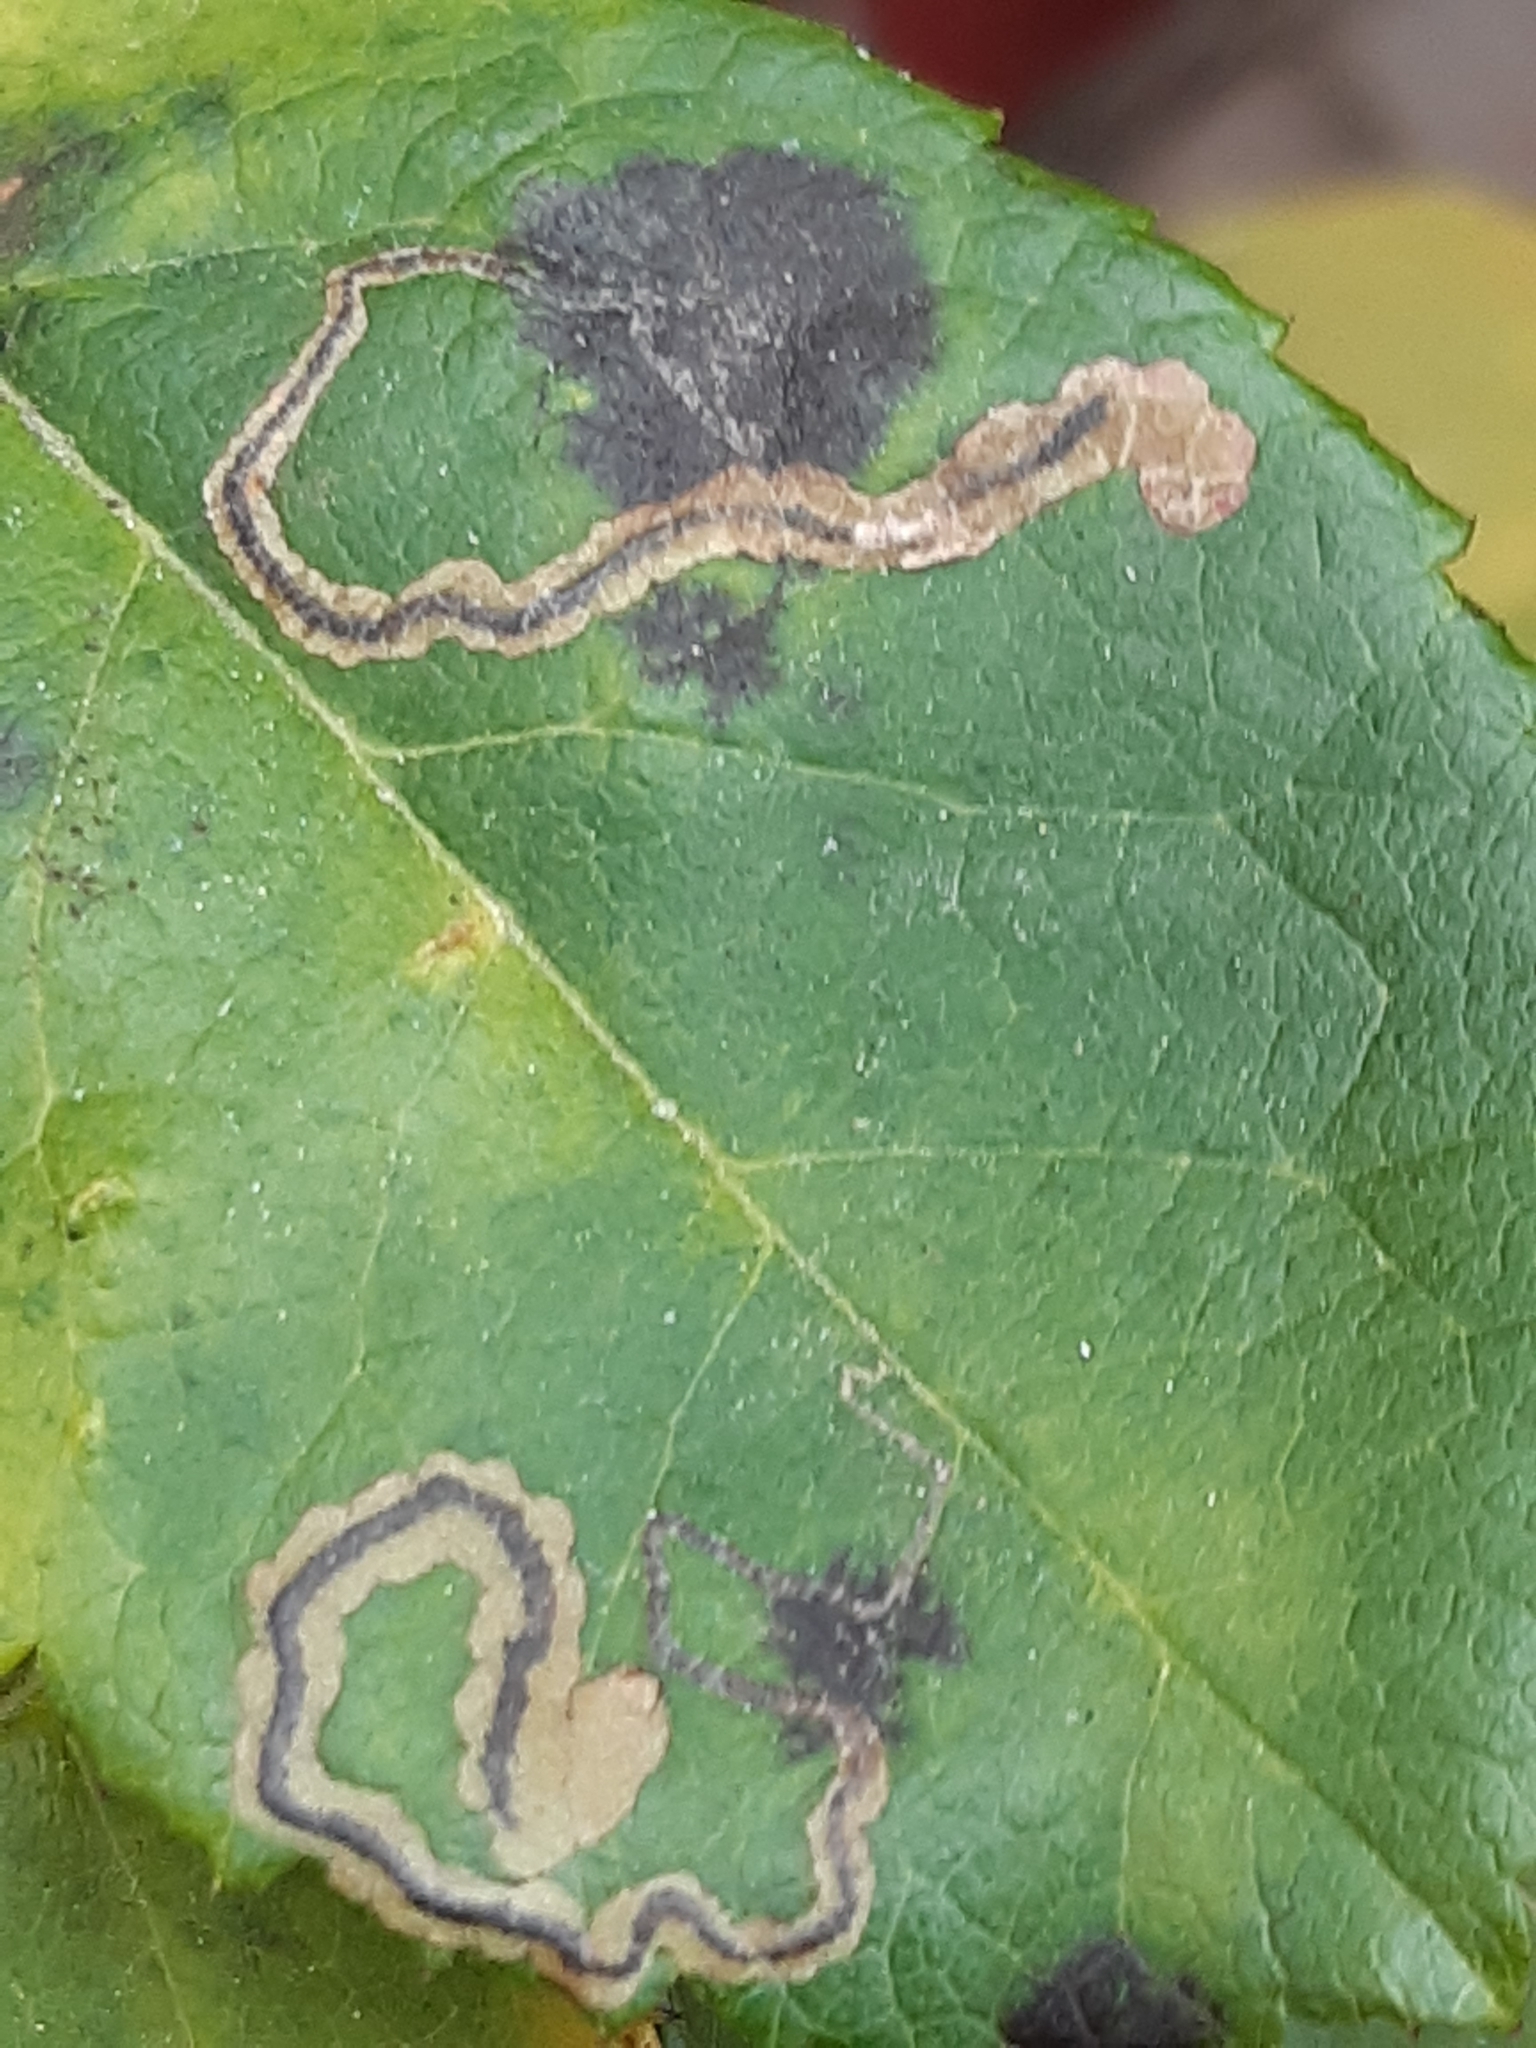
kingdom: Animalia
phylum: Arthropoda
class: Insecta
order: Lepidoptera
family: Nepticulidae
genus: Stigmella
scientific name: Stigmella centifoliella
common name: Narrow-barred pigmy
